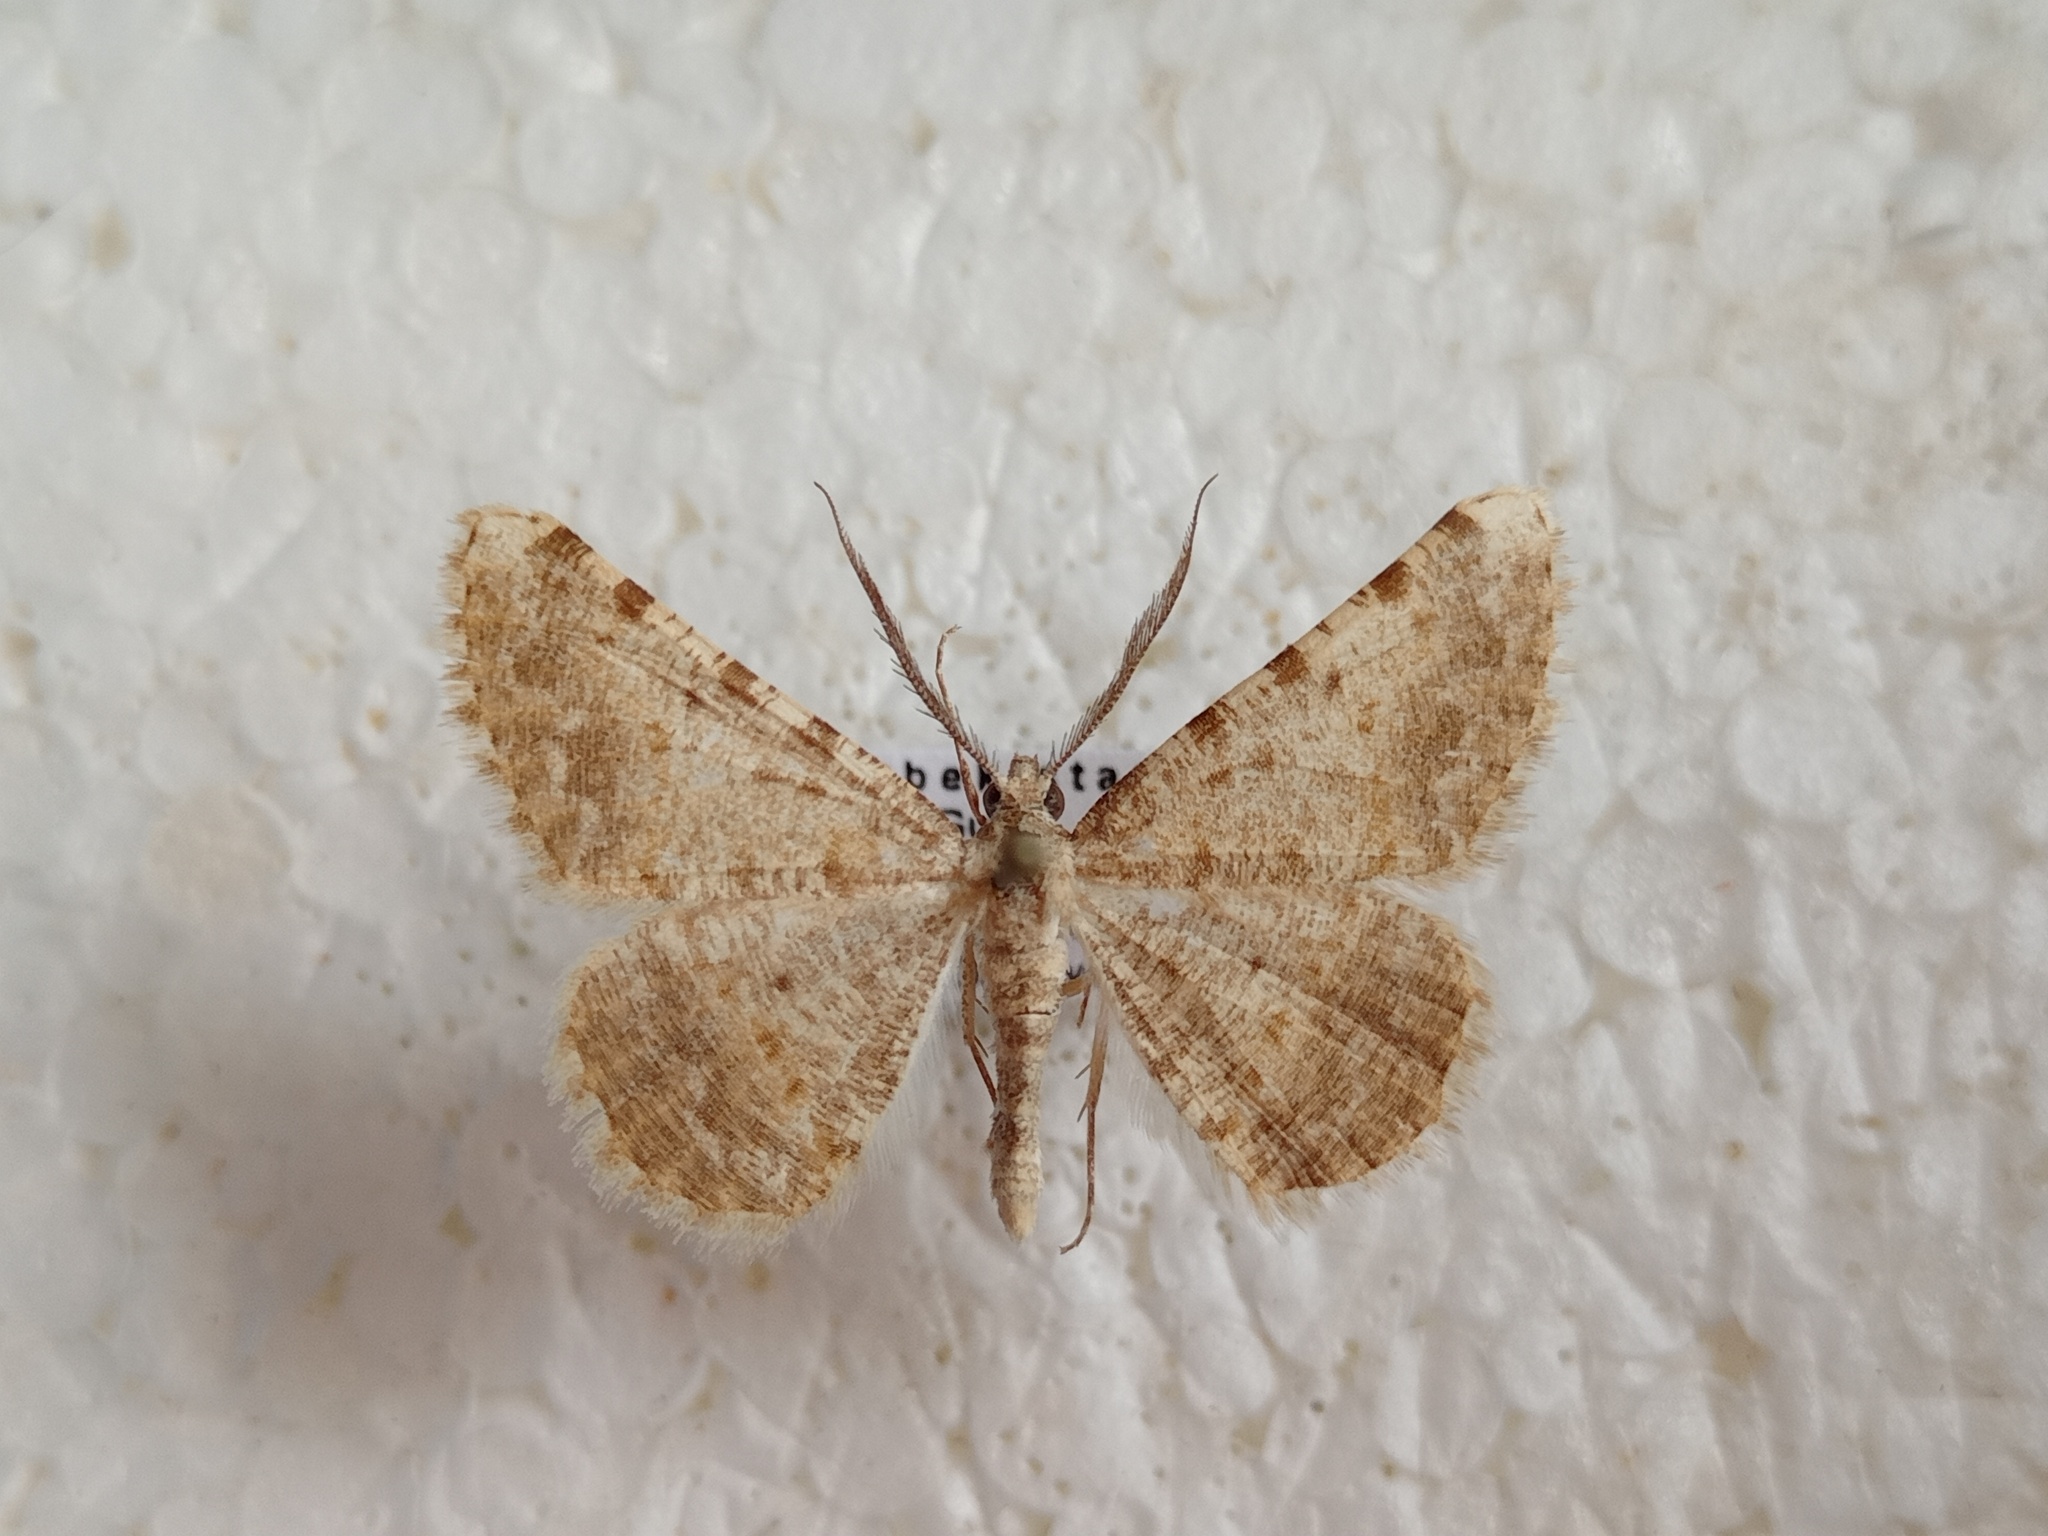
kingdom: Animalia
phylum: Arthropoda
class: Insecta
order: Lepidoptera
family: Geometridae
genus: Gnopharmia
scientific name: Gnopharmia colchidaria
